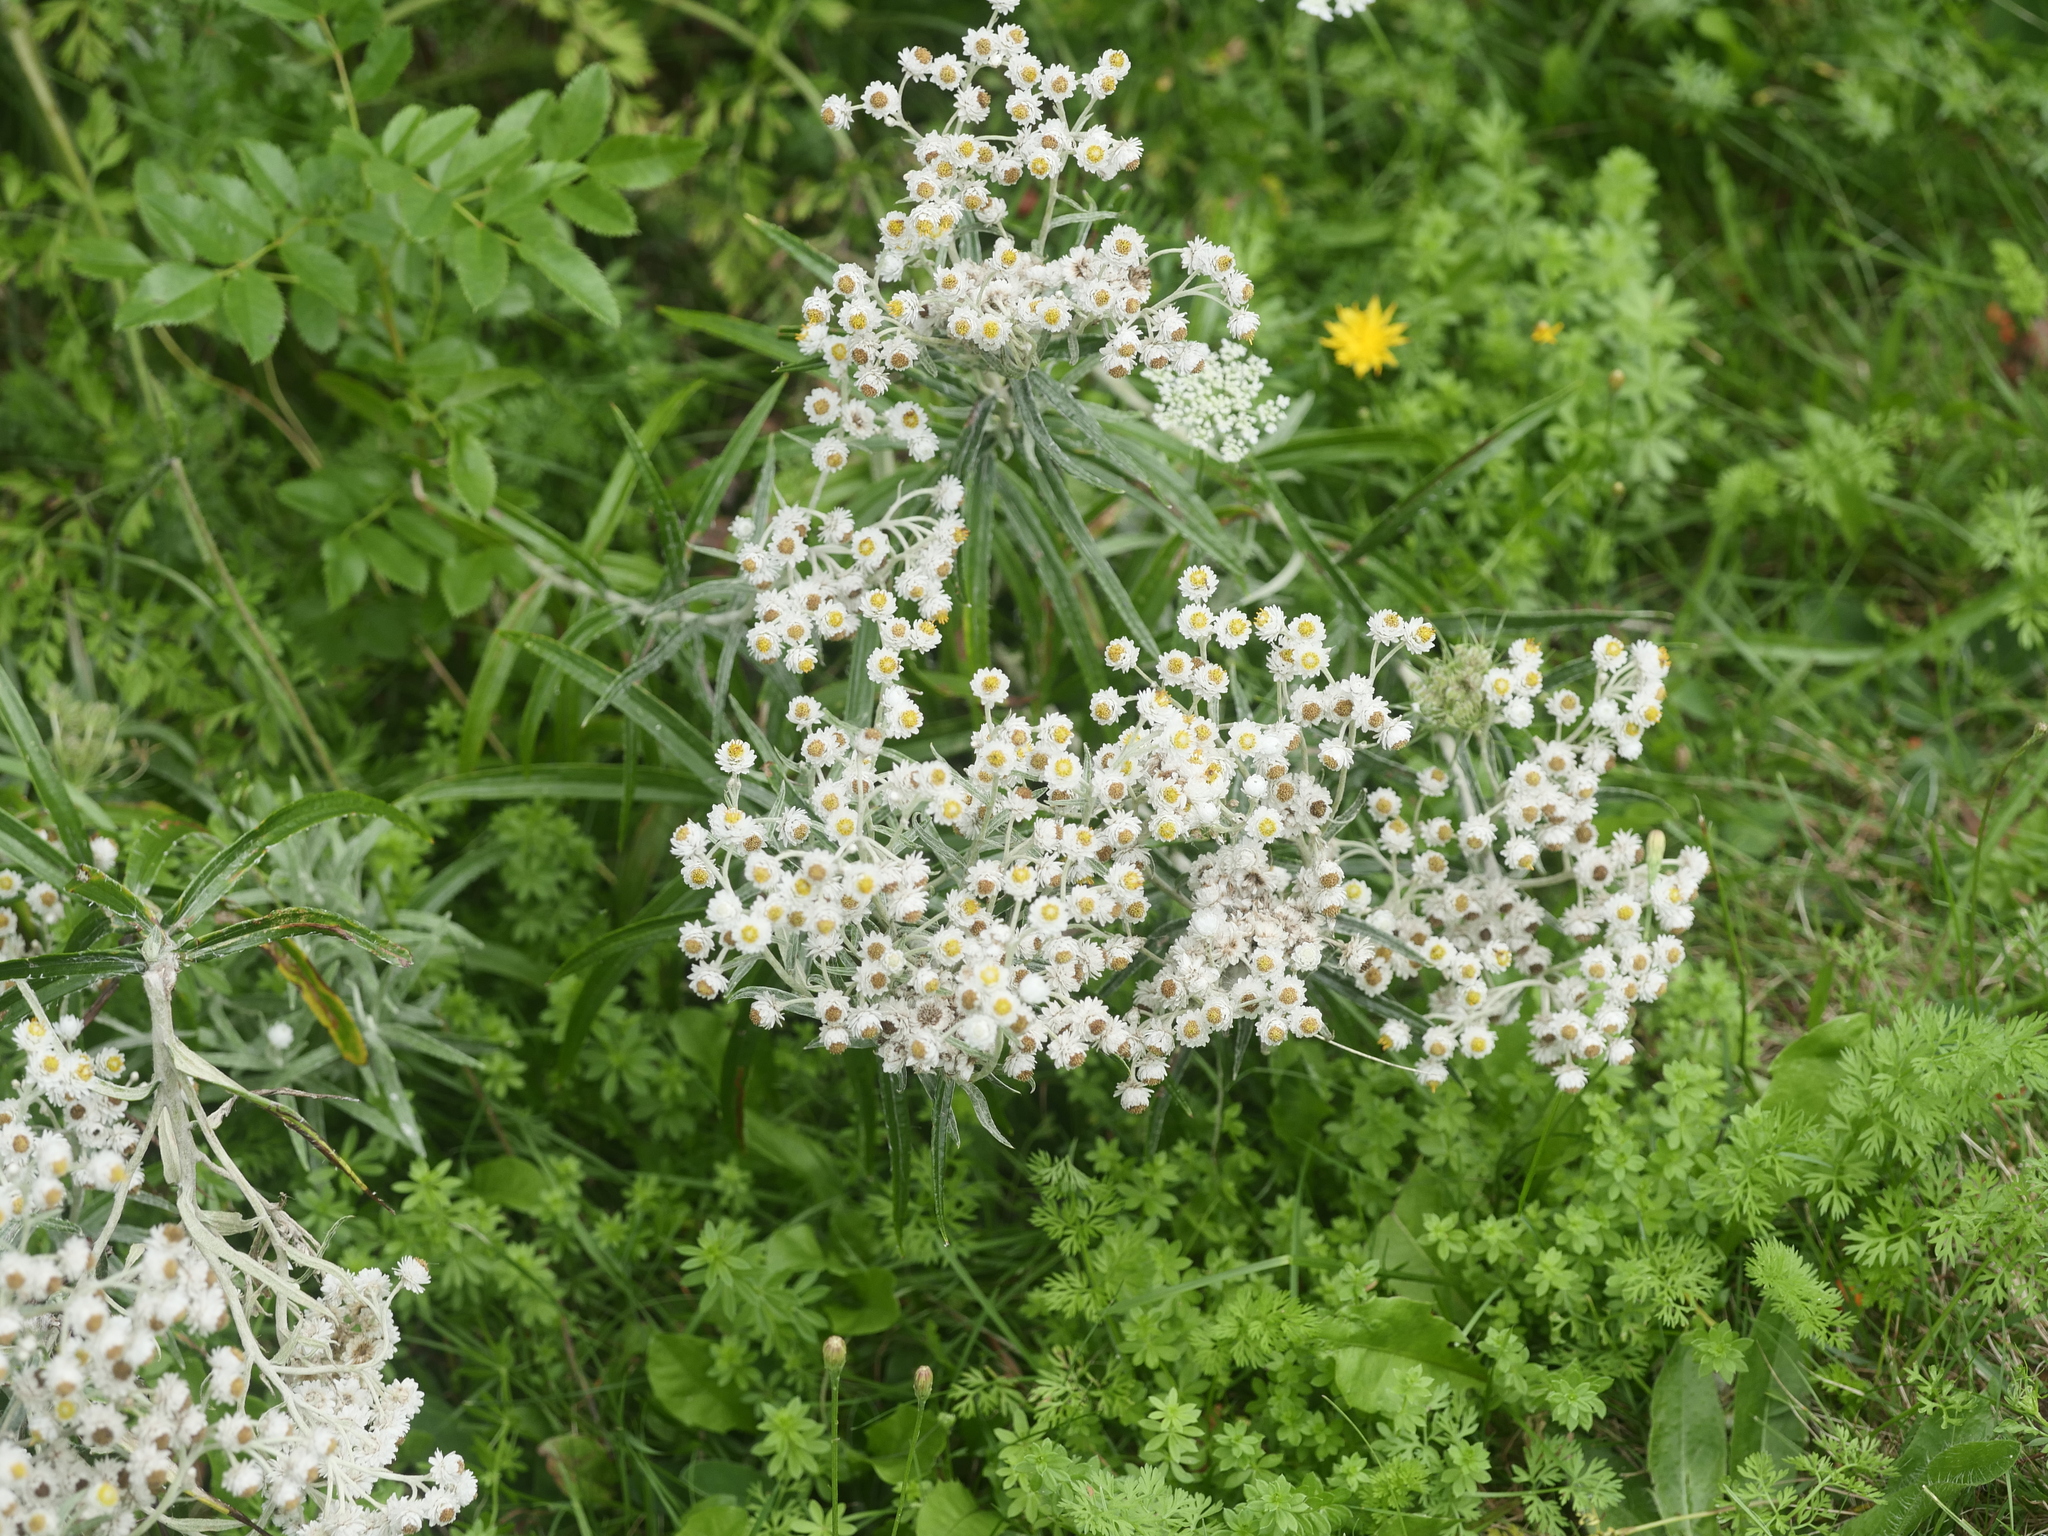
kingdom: Plantae
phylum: Tracheophyta
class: Magnoliopsida
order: Asterales
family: Asteraceae
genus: Anaphalis
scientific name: Anaphalis margaritacea
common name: Pearly everlasting
